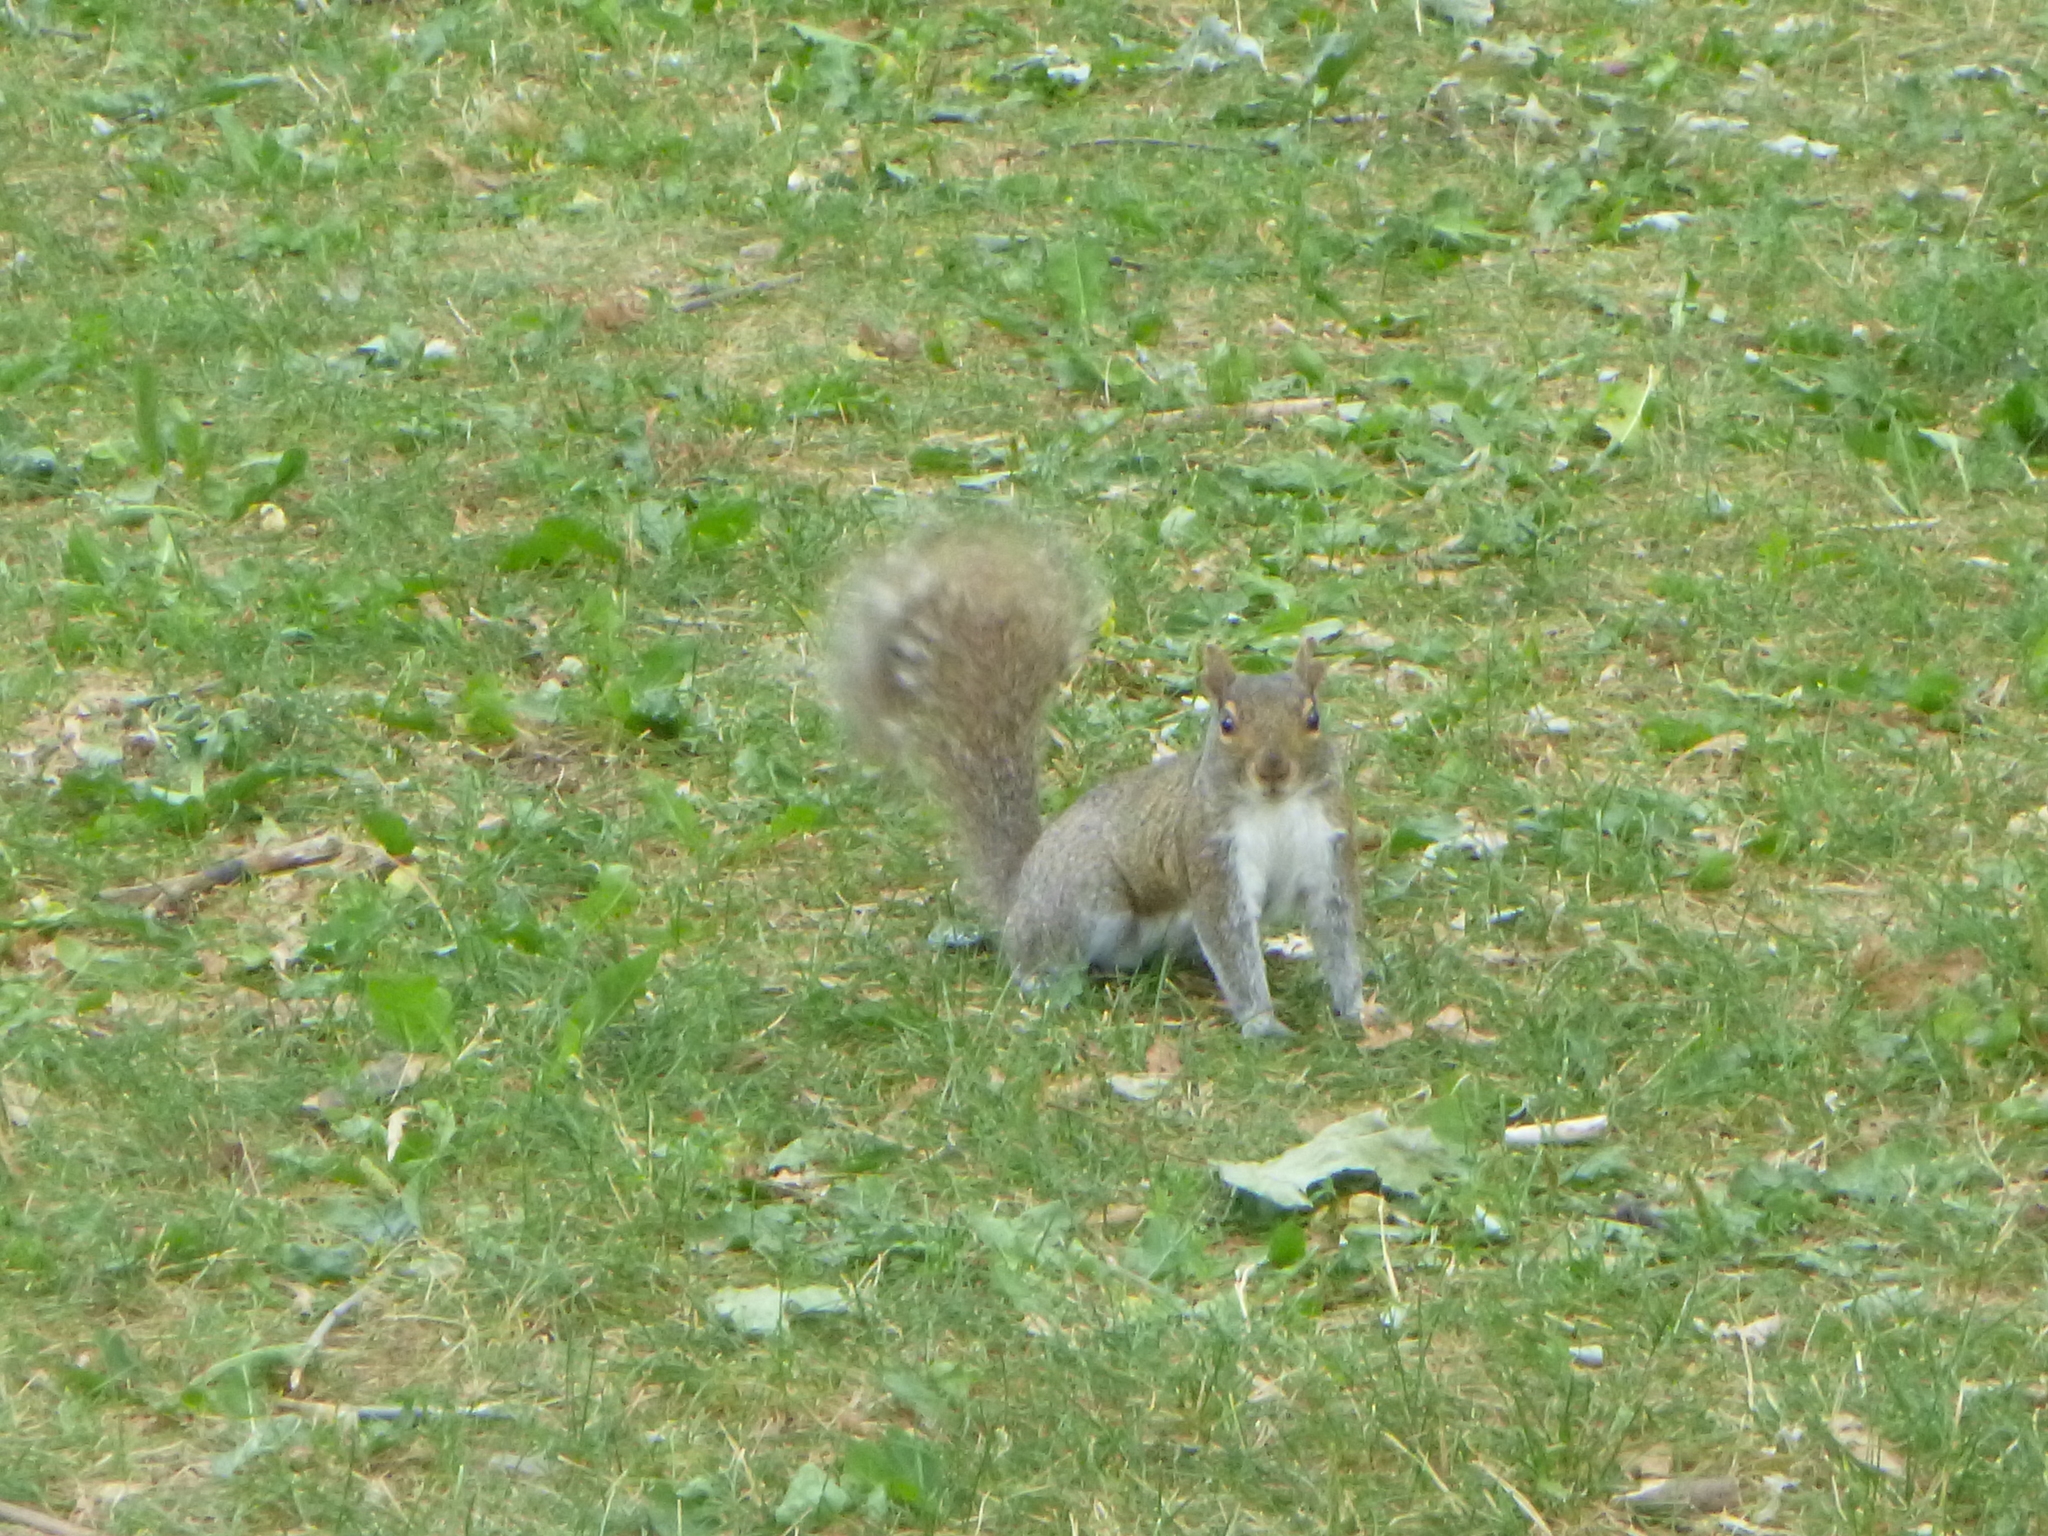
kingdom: Animalia
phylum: Chordata
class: Mammalia
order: Rodentia
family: Sciuridae
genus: Sciurus
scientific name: Sciurus carolinensis
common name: Eastern gray squirrel
